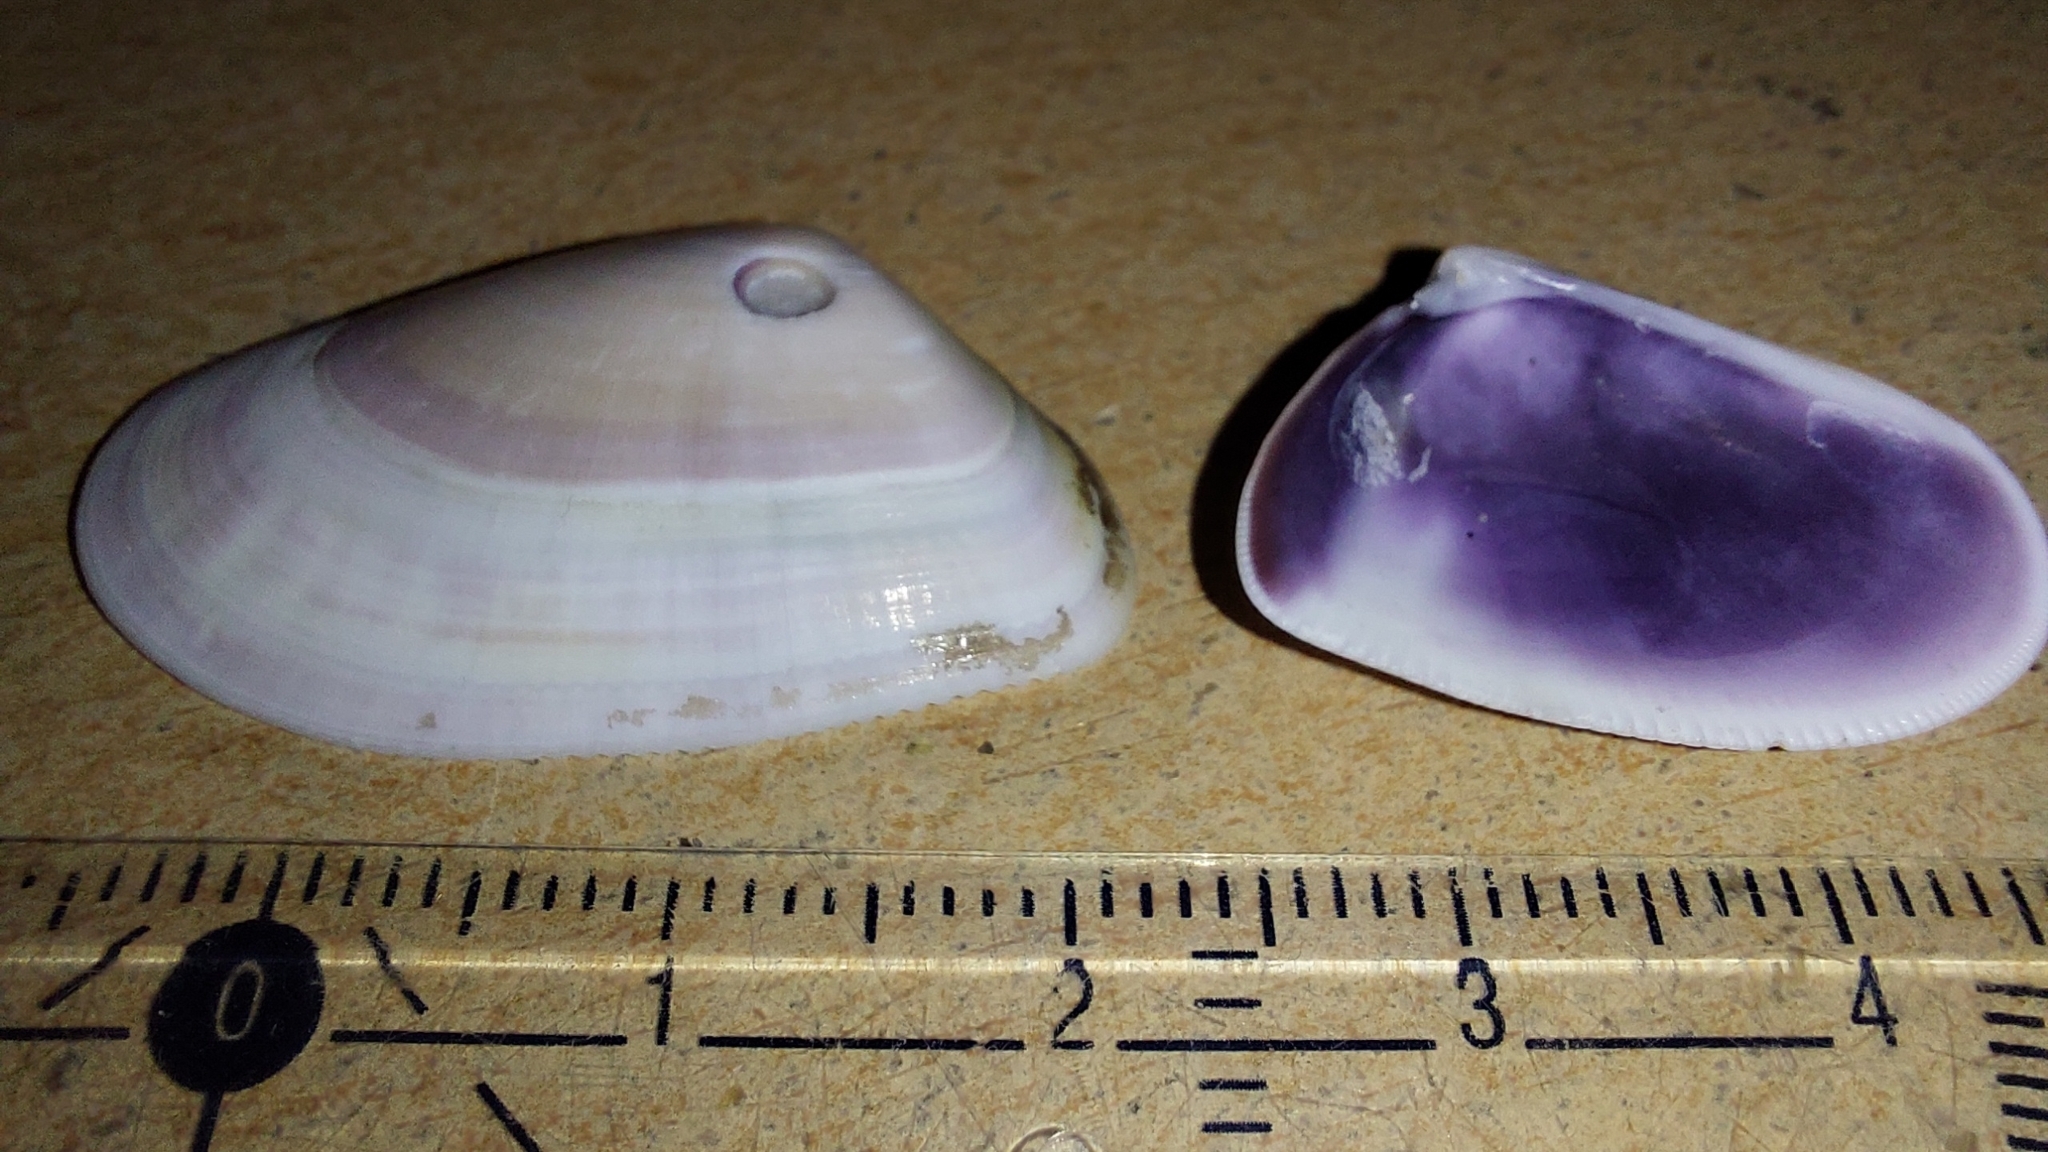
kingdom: Animalia
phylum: Mollusca
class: Bivalvia
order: Cardiida
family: Donacidae
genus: Donax
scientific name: Donax trunculus
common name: Truncate donax
